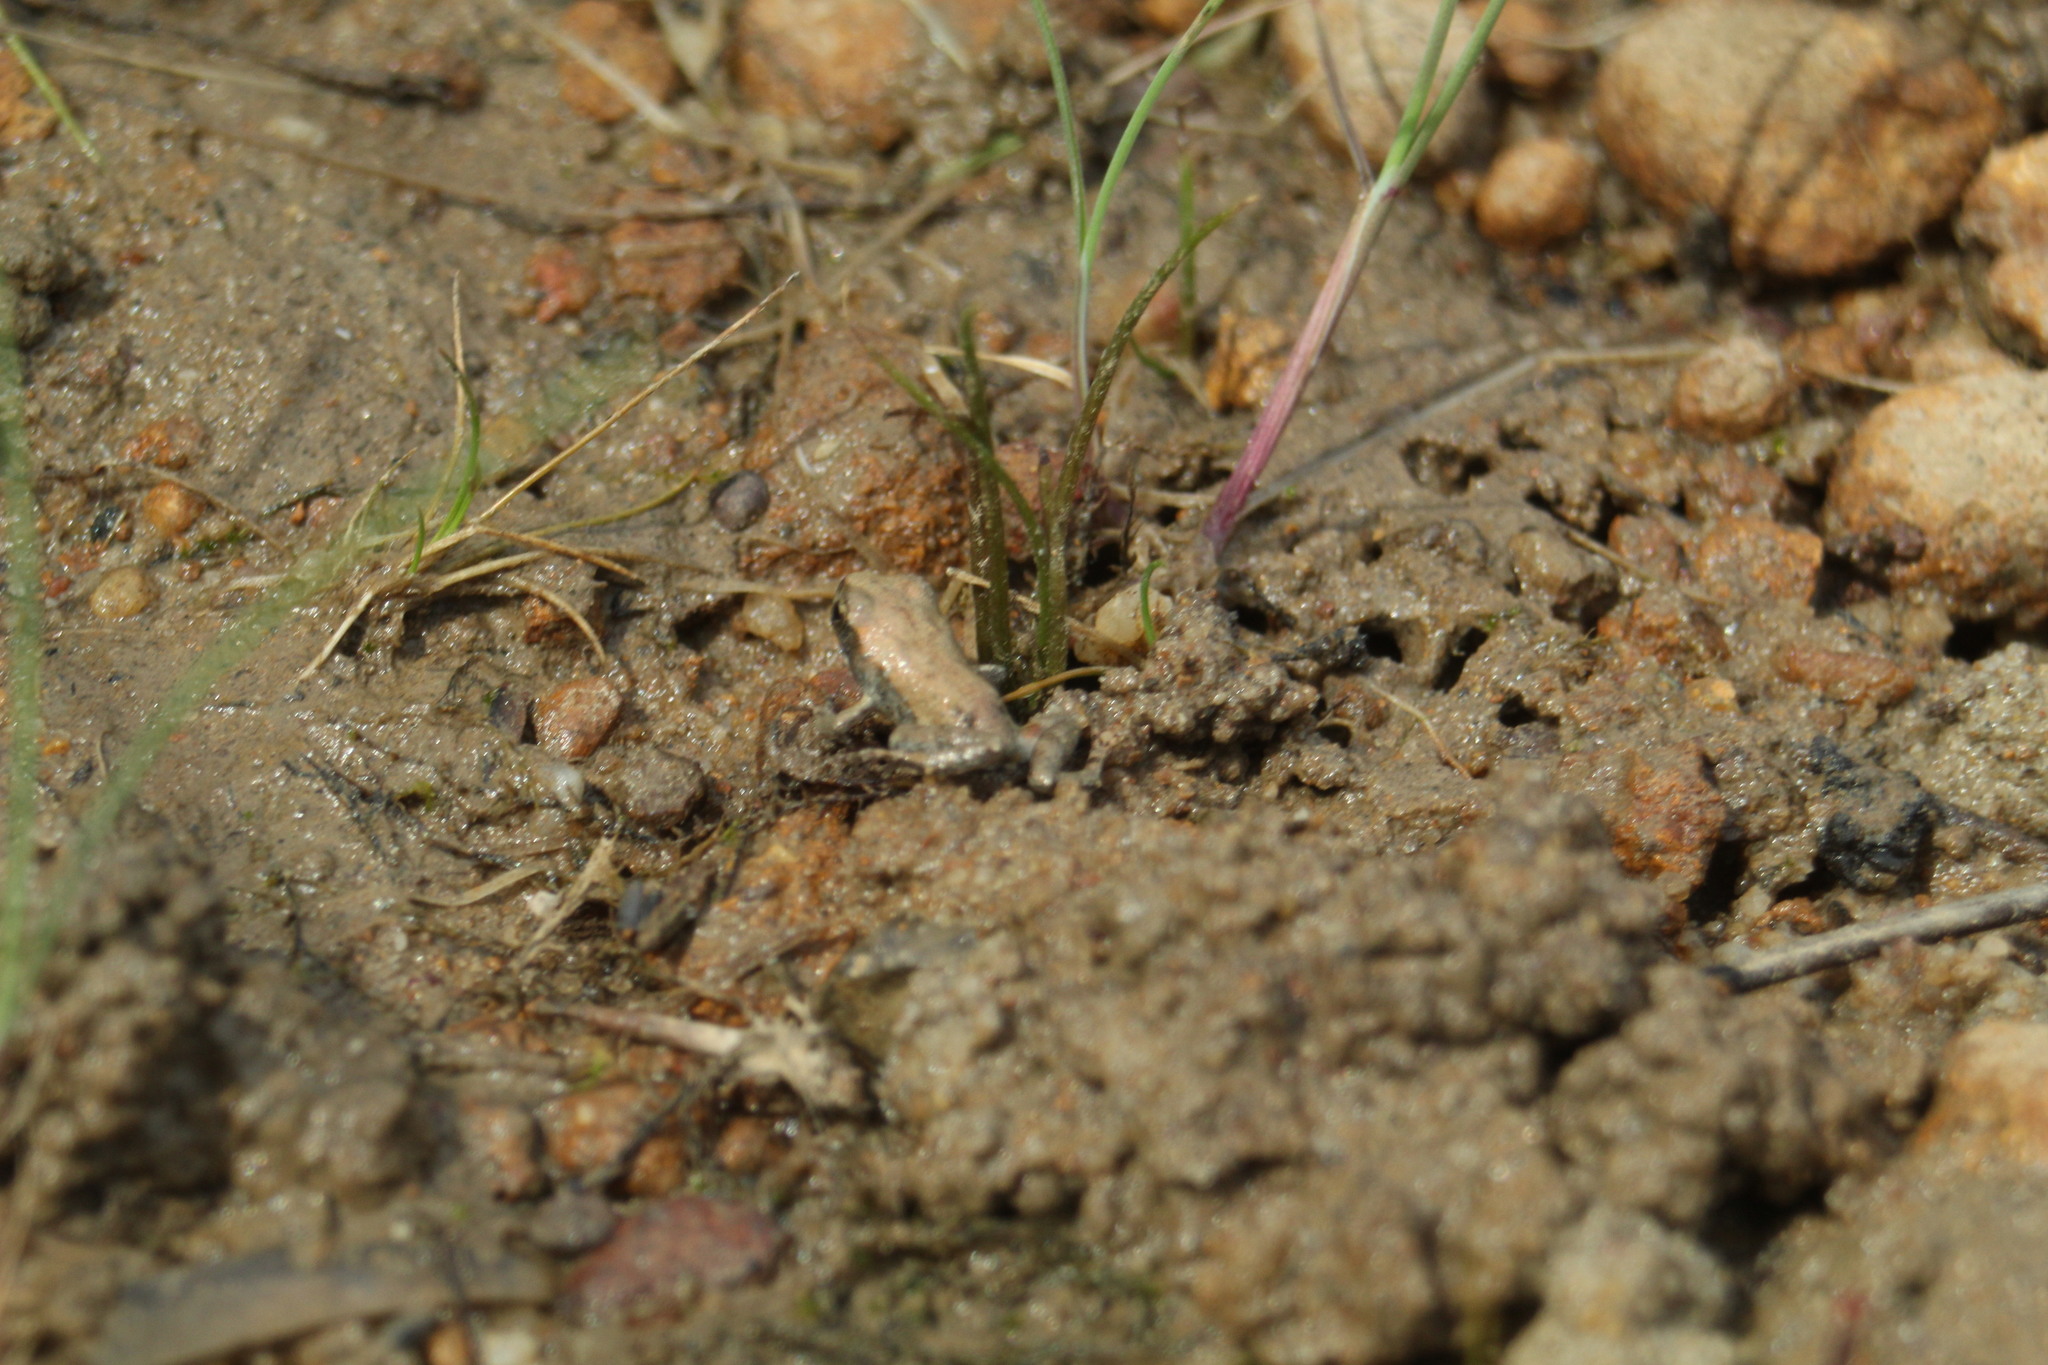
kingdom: Animalia
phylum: Chordata
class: Amphibia
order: Anura
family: Myobatrachidae
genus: Geocrinia
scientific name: Geocrinia leai
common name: Lea’s frog
